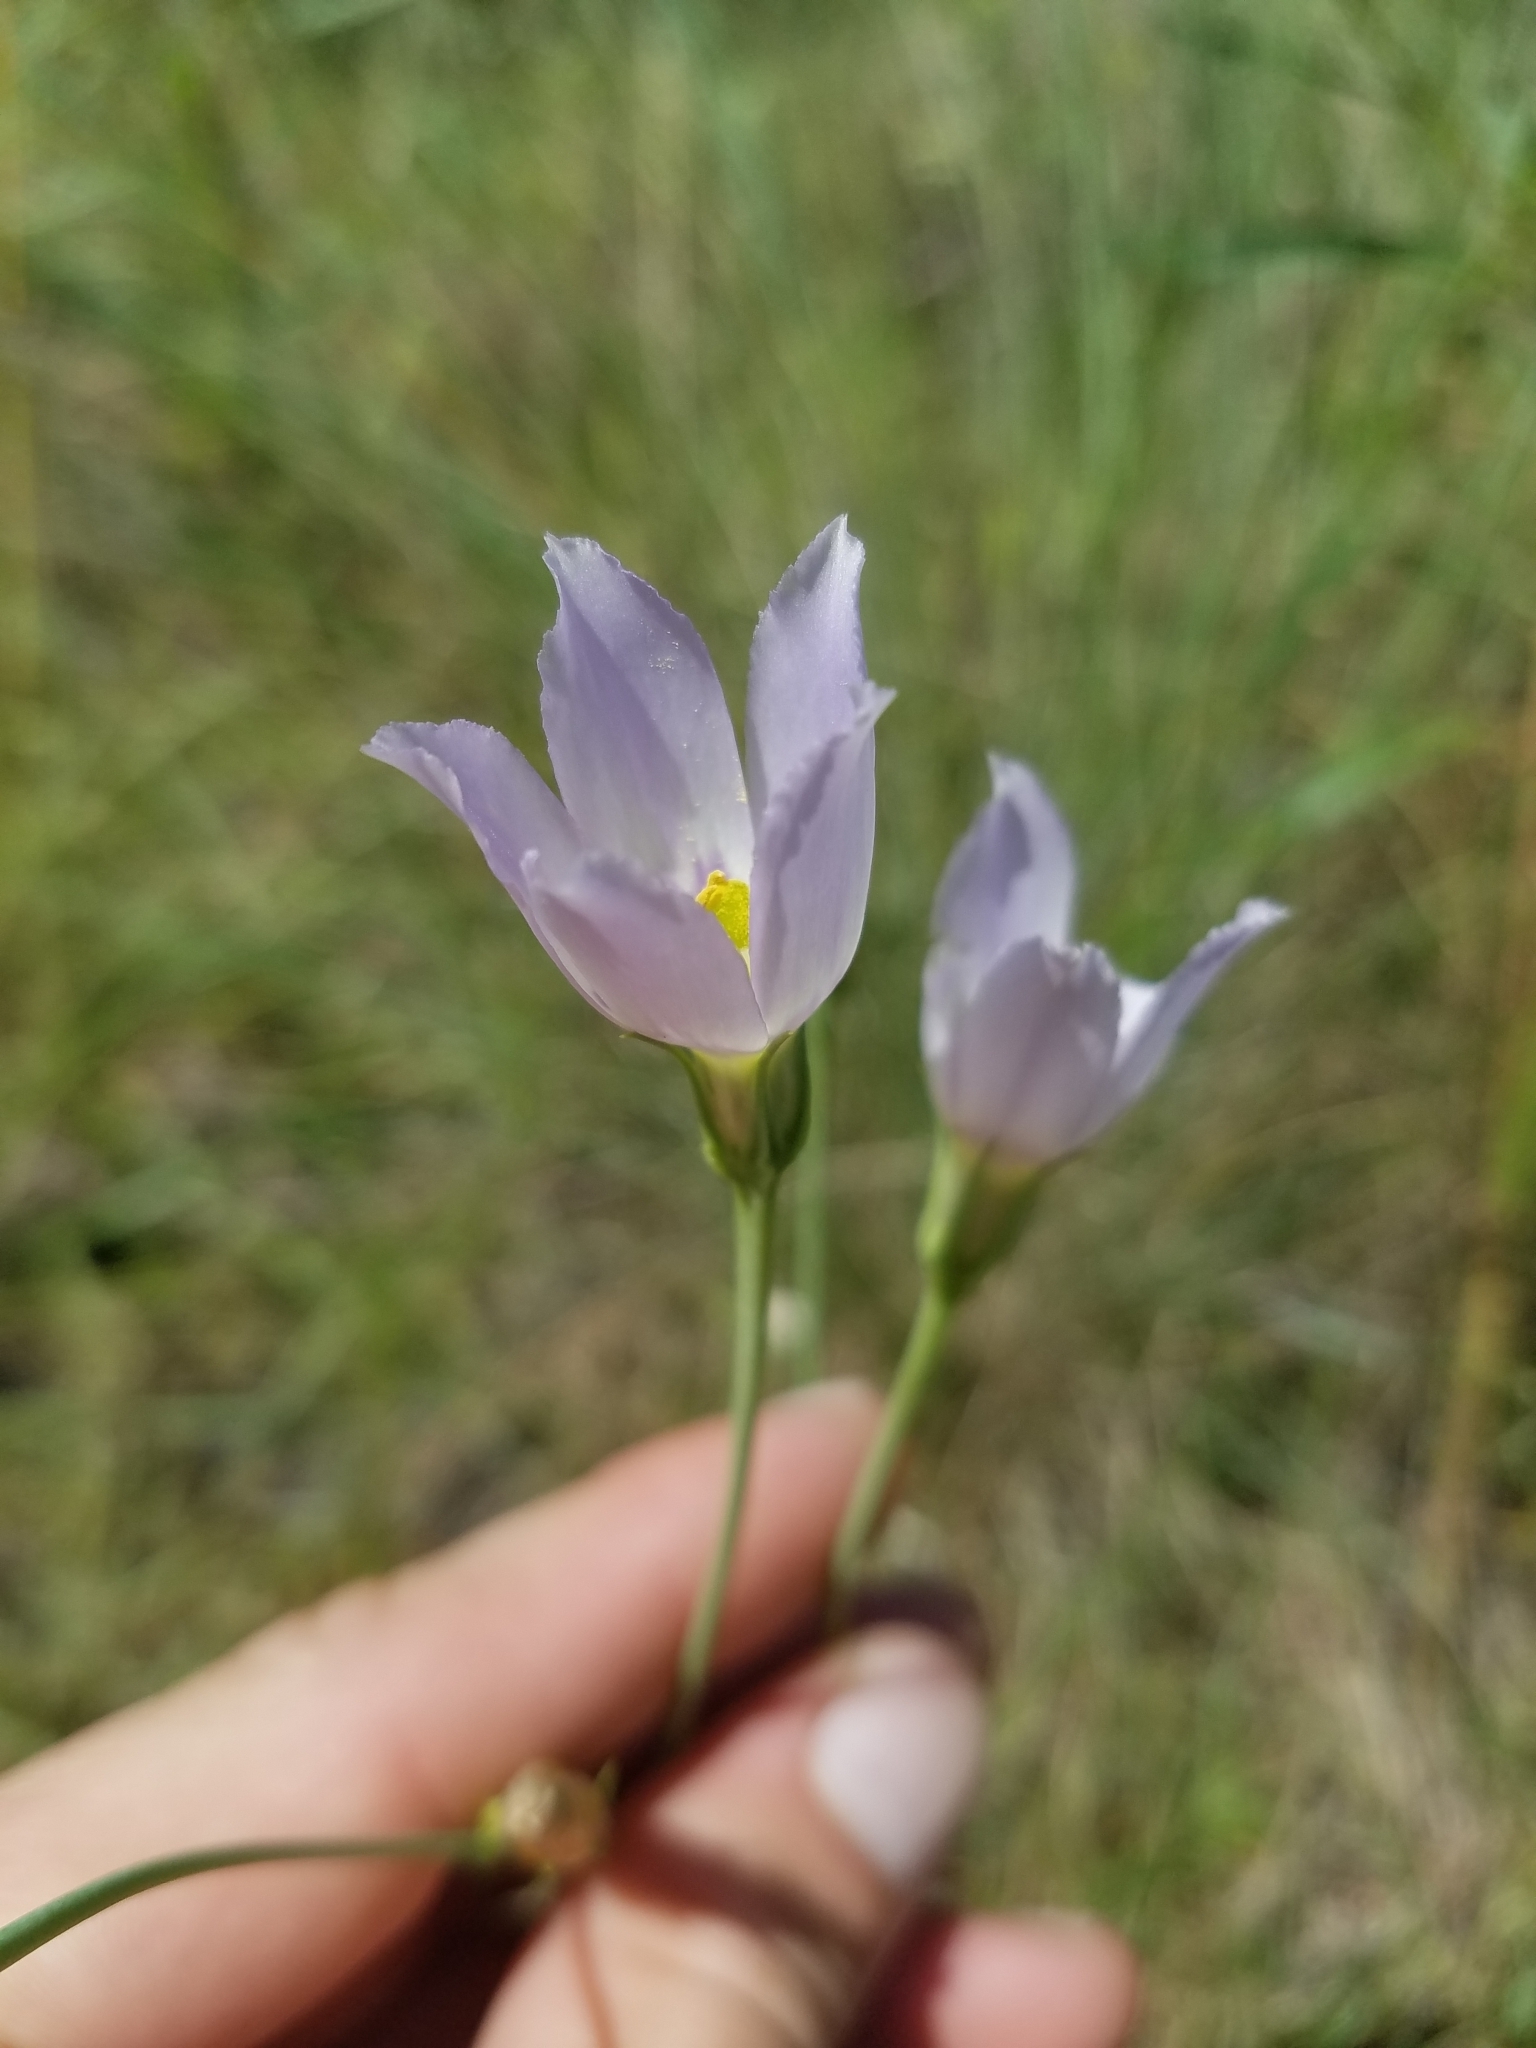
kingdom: Plantae
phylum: Tracheophyta
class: Magnoliopsida
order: Gentianales
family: Gentianaceae
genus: Eustoma
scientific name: Eustoma exaltatum
